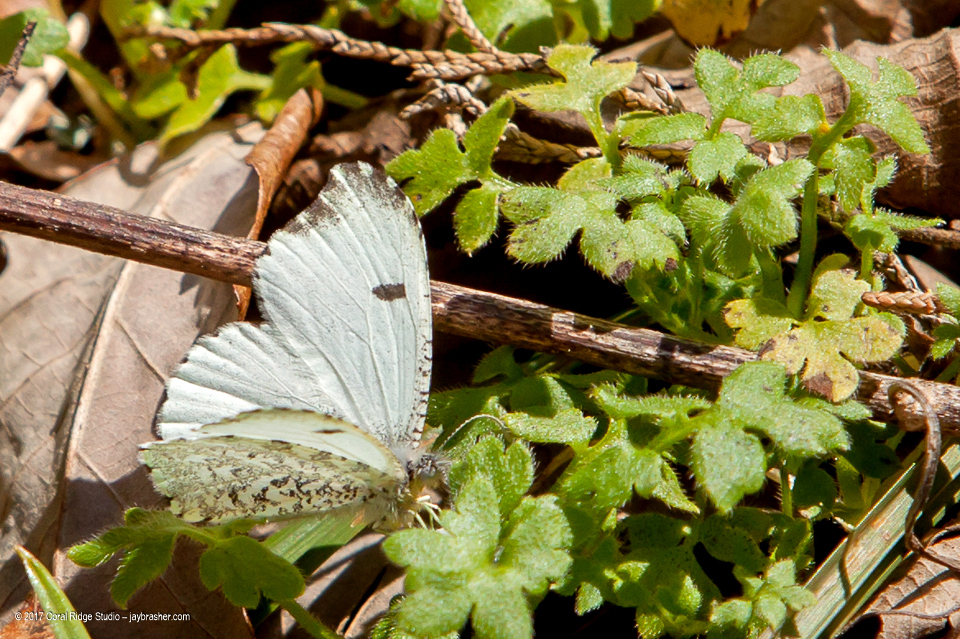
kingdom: Animalia
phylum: Arthropoda
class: Insecta
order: Lepidoptera
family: Pieridae
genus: Anthocharis
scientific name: Anthocharis midea
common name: Falcate orangetip
